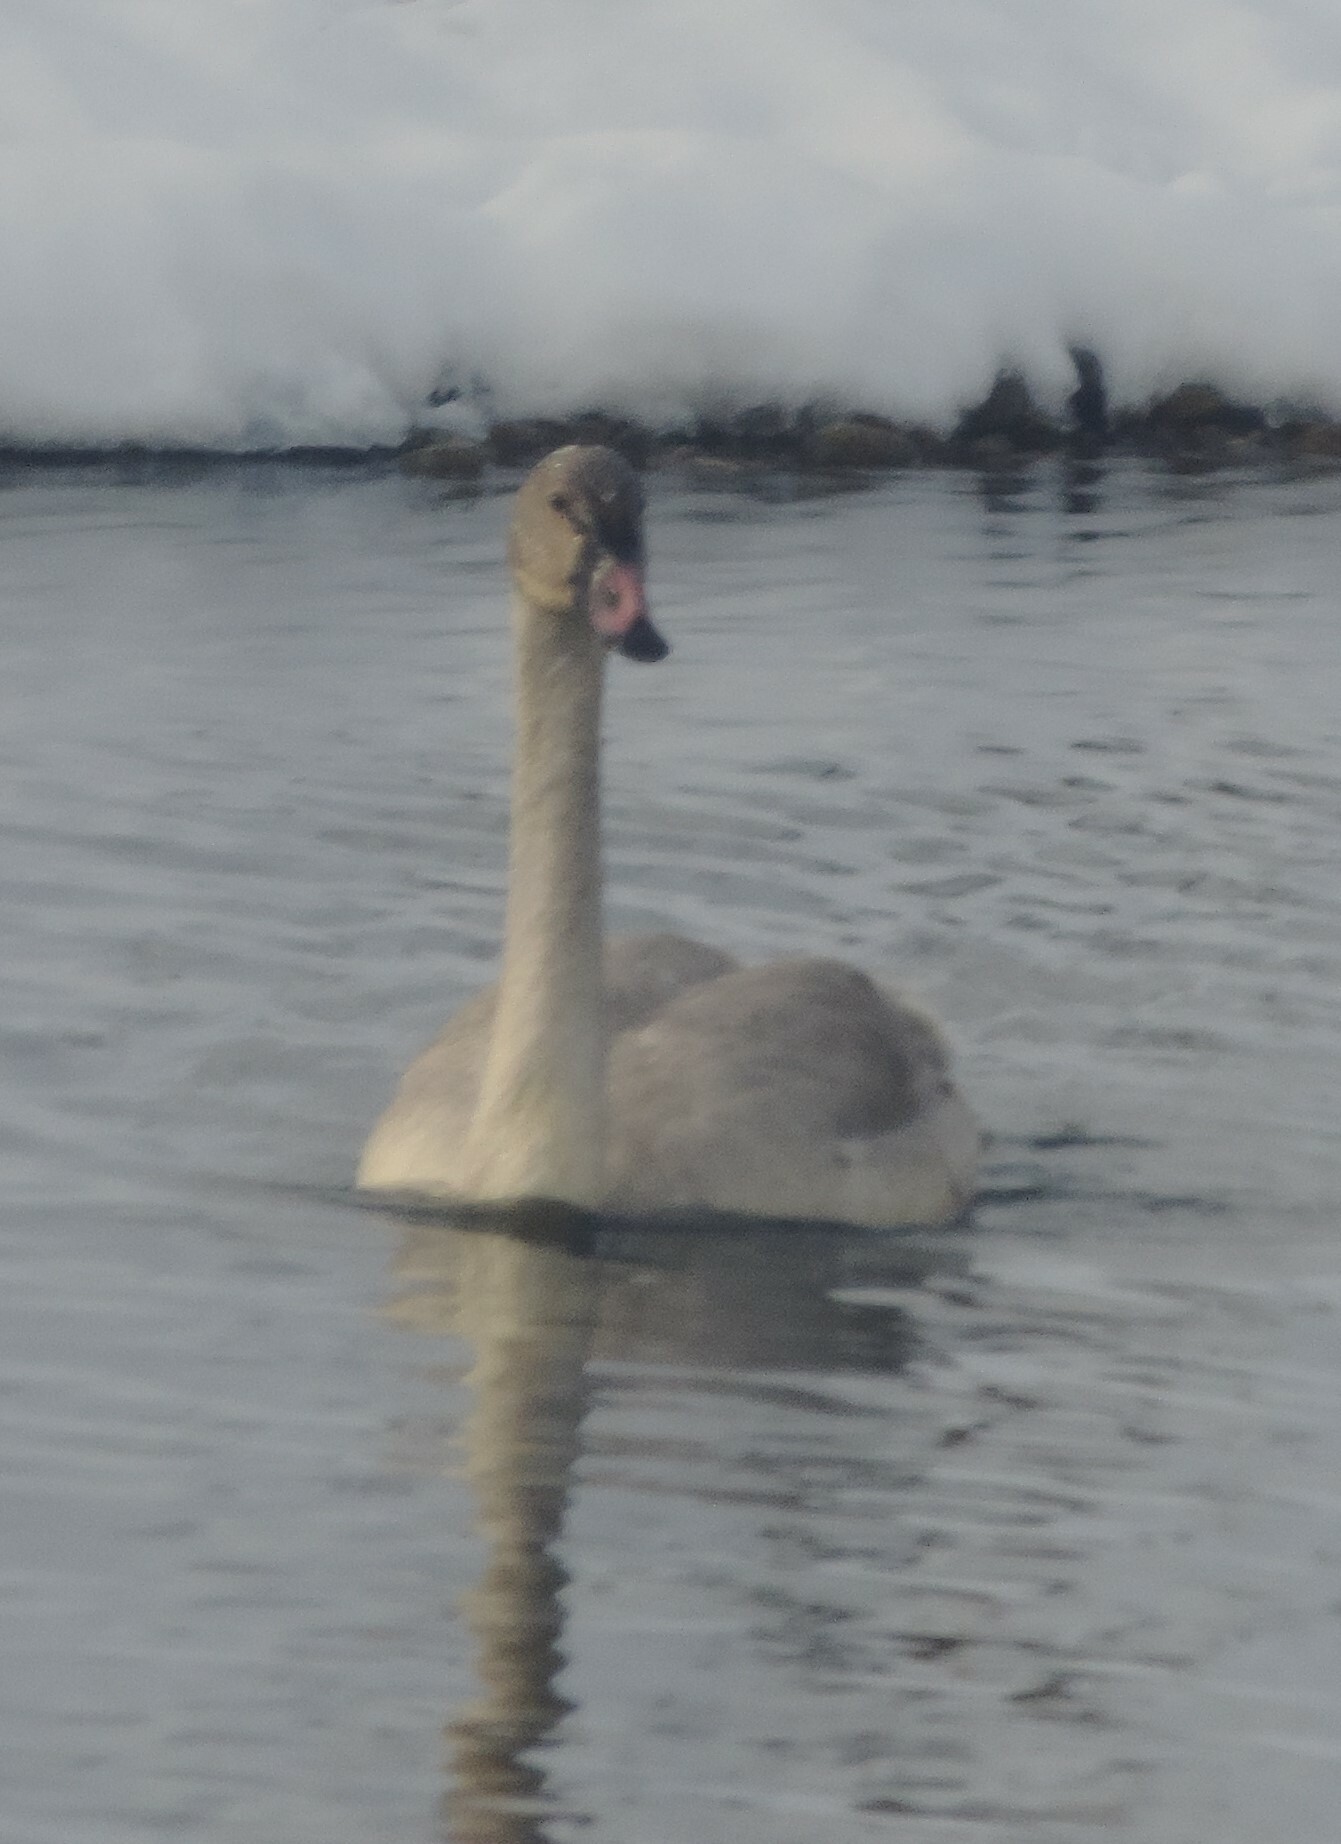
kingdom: Animalia
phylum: Chordata
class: Aves
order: Anseriformes
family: Anatidae
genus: Cygnus
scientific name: Cygnus buccinator
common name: Trumpeter swan
